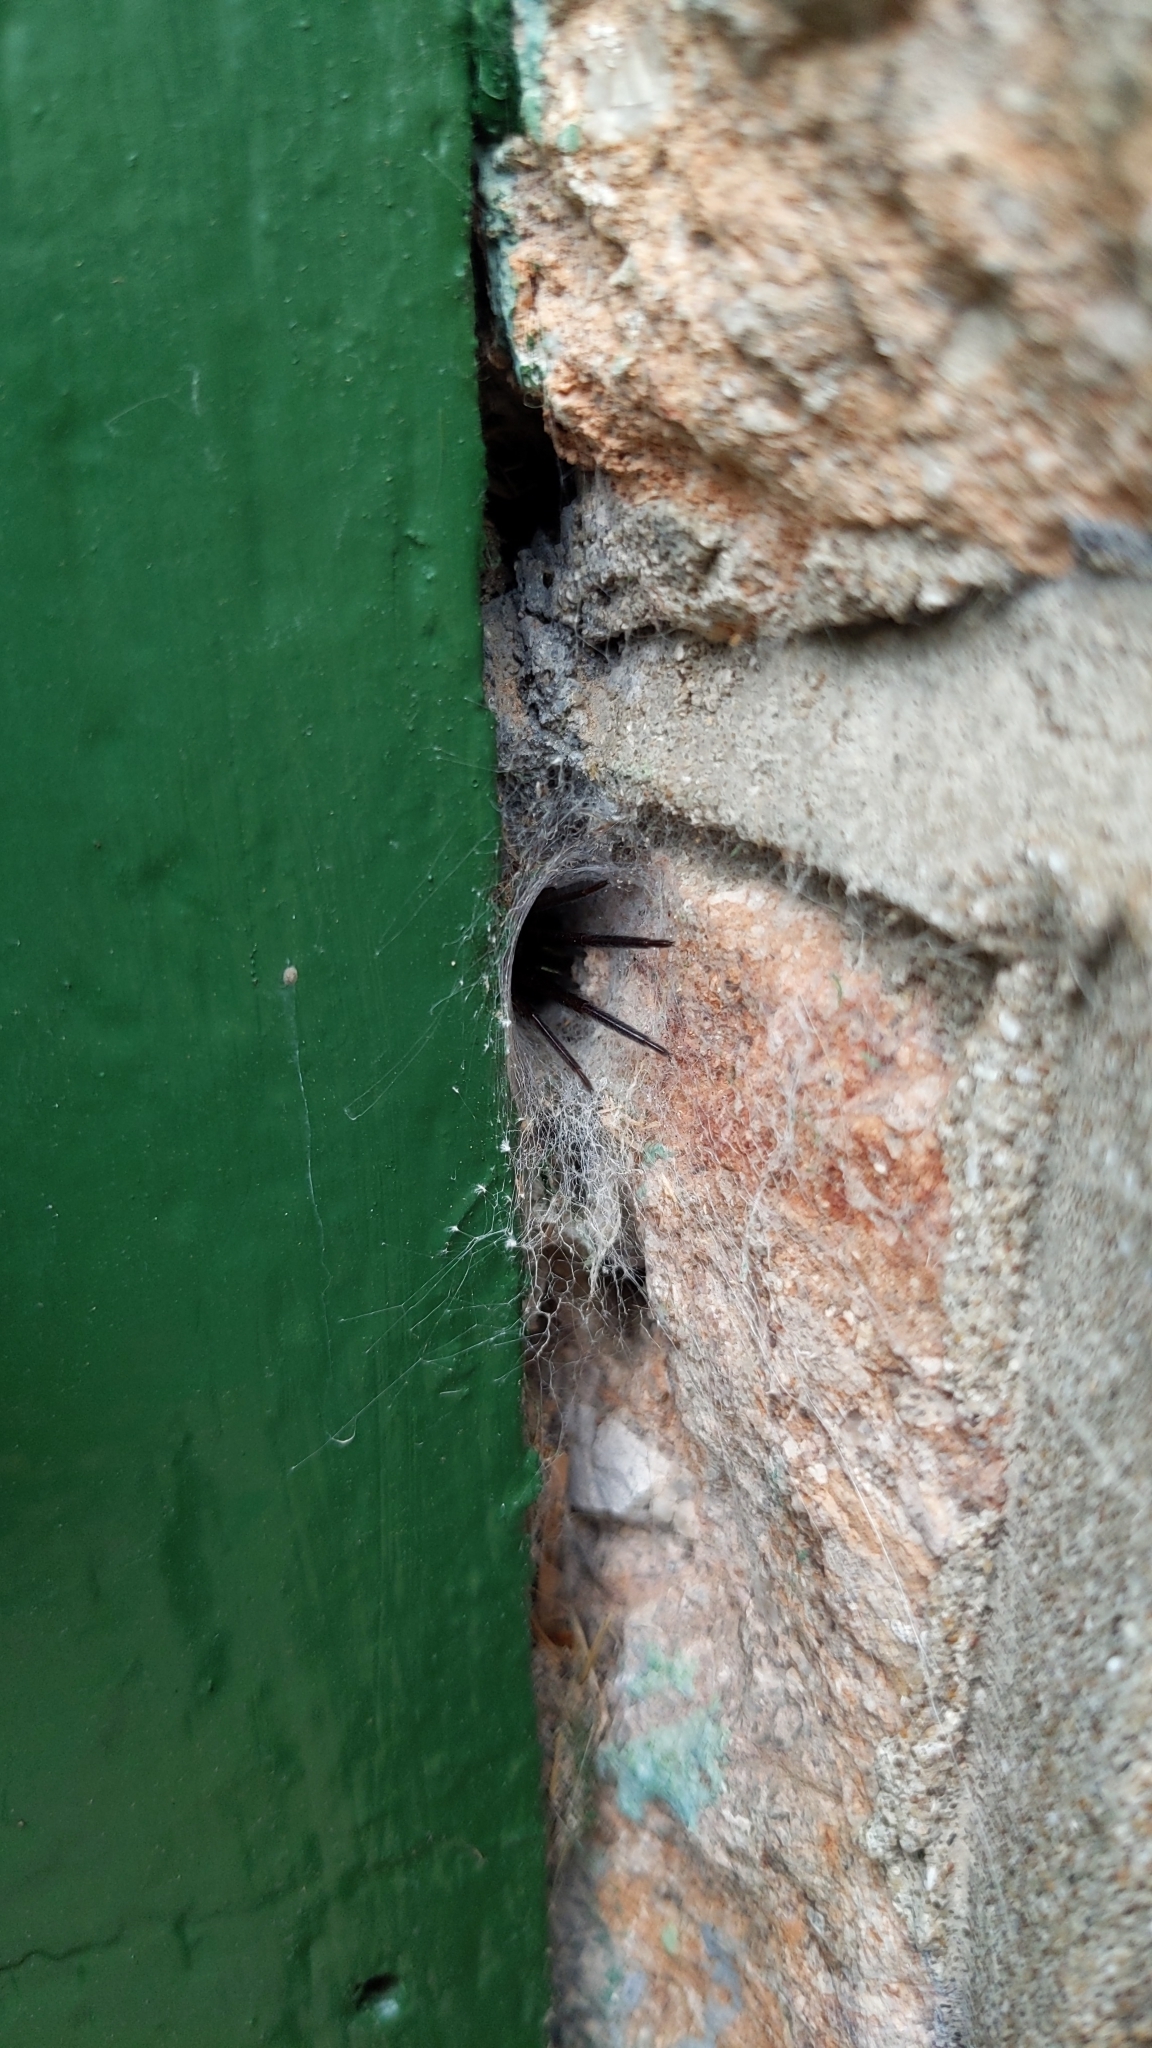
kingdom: Animalia
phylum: Arthropoda
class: Arachnida
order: Araneae
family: Segestriidae
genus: Segestria
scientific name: Segestria florentina
